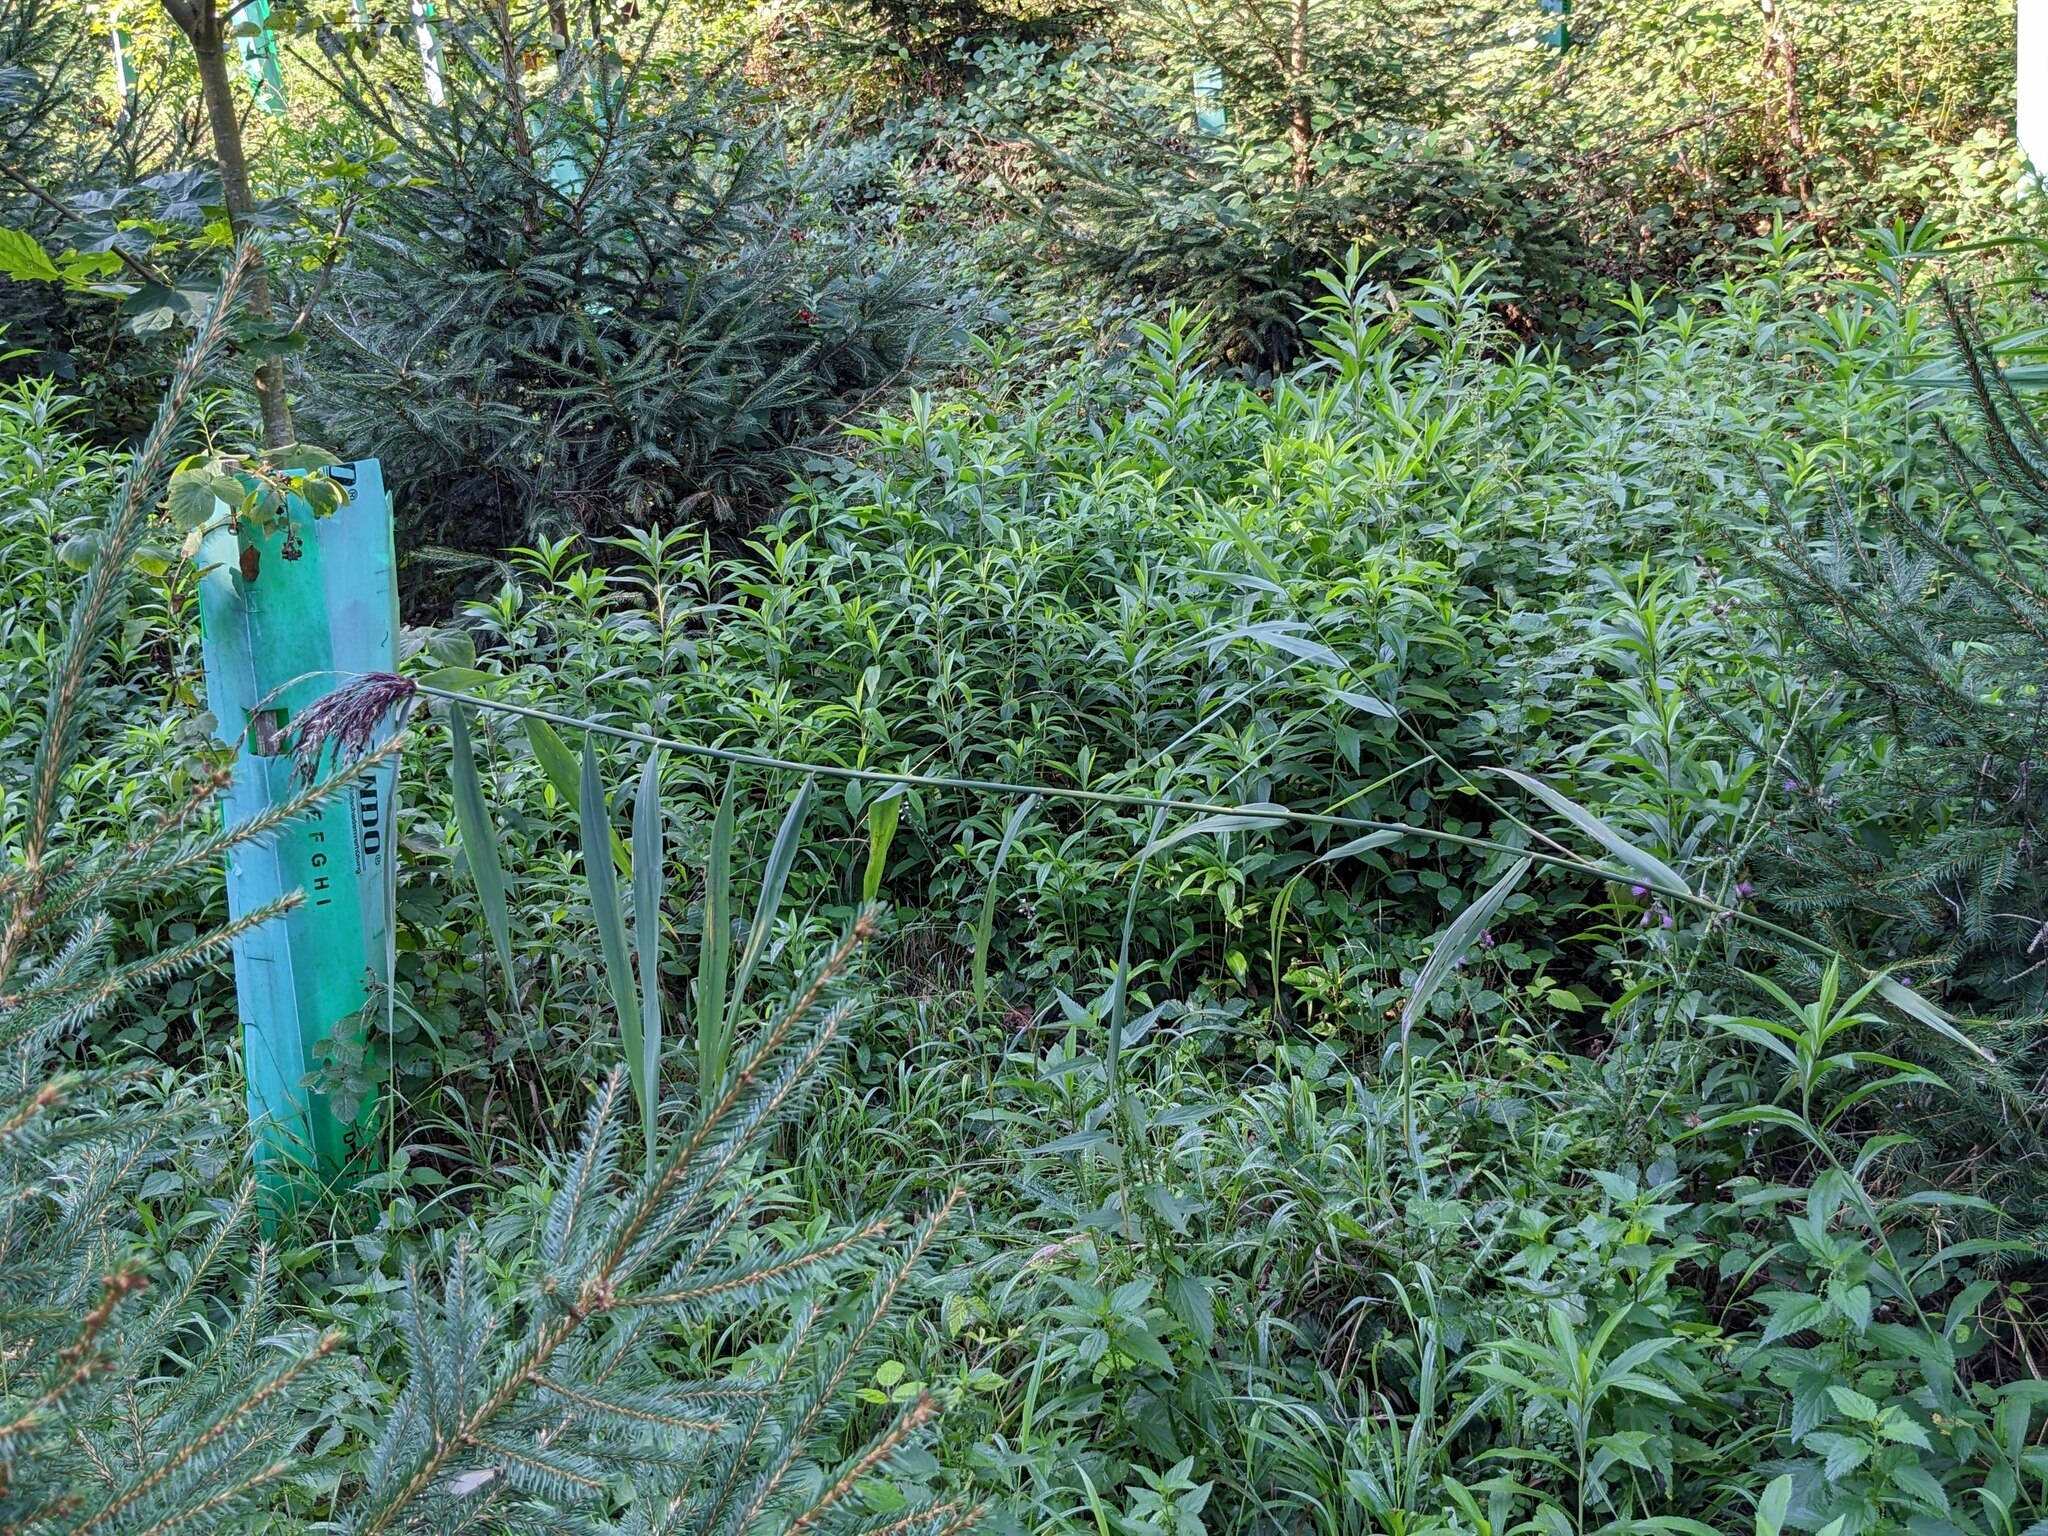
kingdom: Plantae
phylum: Tracheophyta
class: Liliopsida
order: Poales
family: Poaceae
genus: Phragmites
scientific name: Phragmites australis
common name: Common reed
